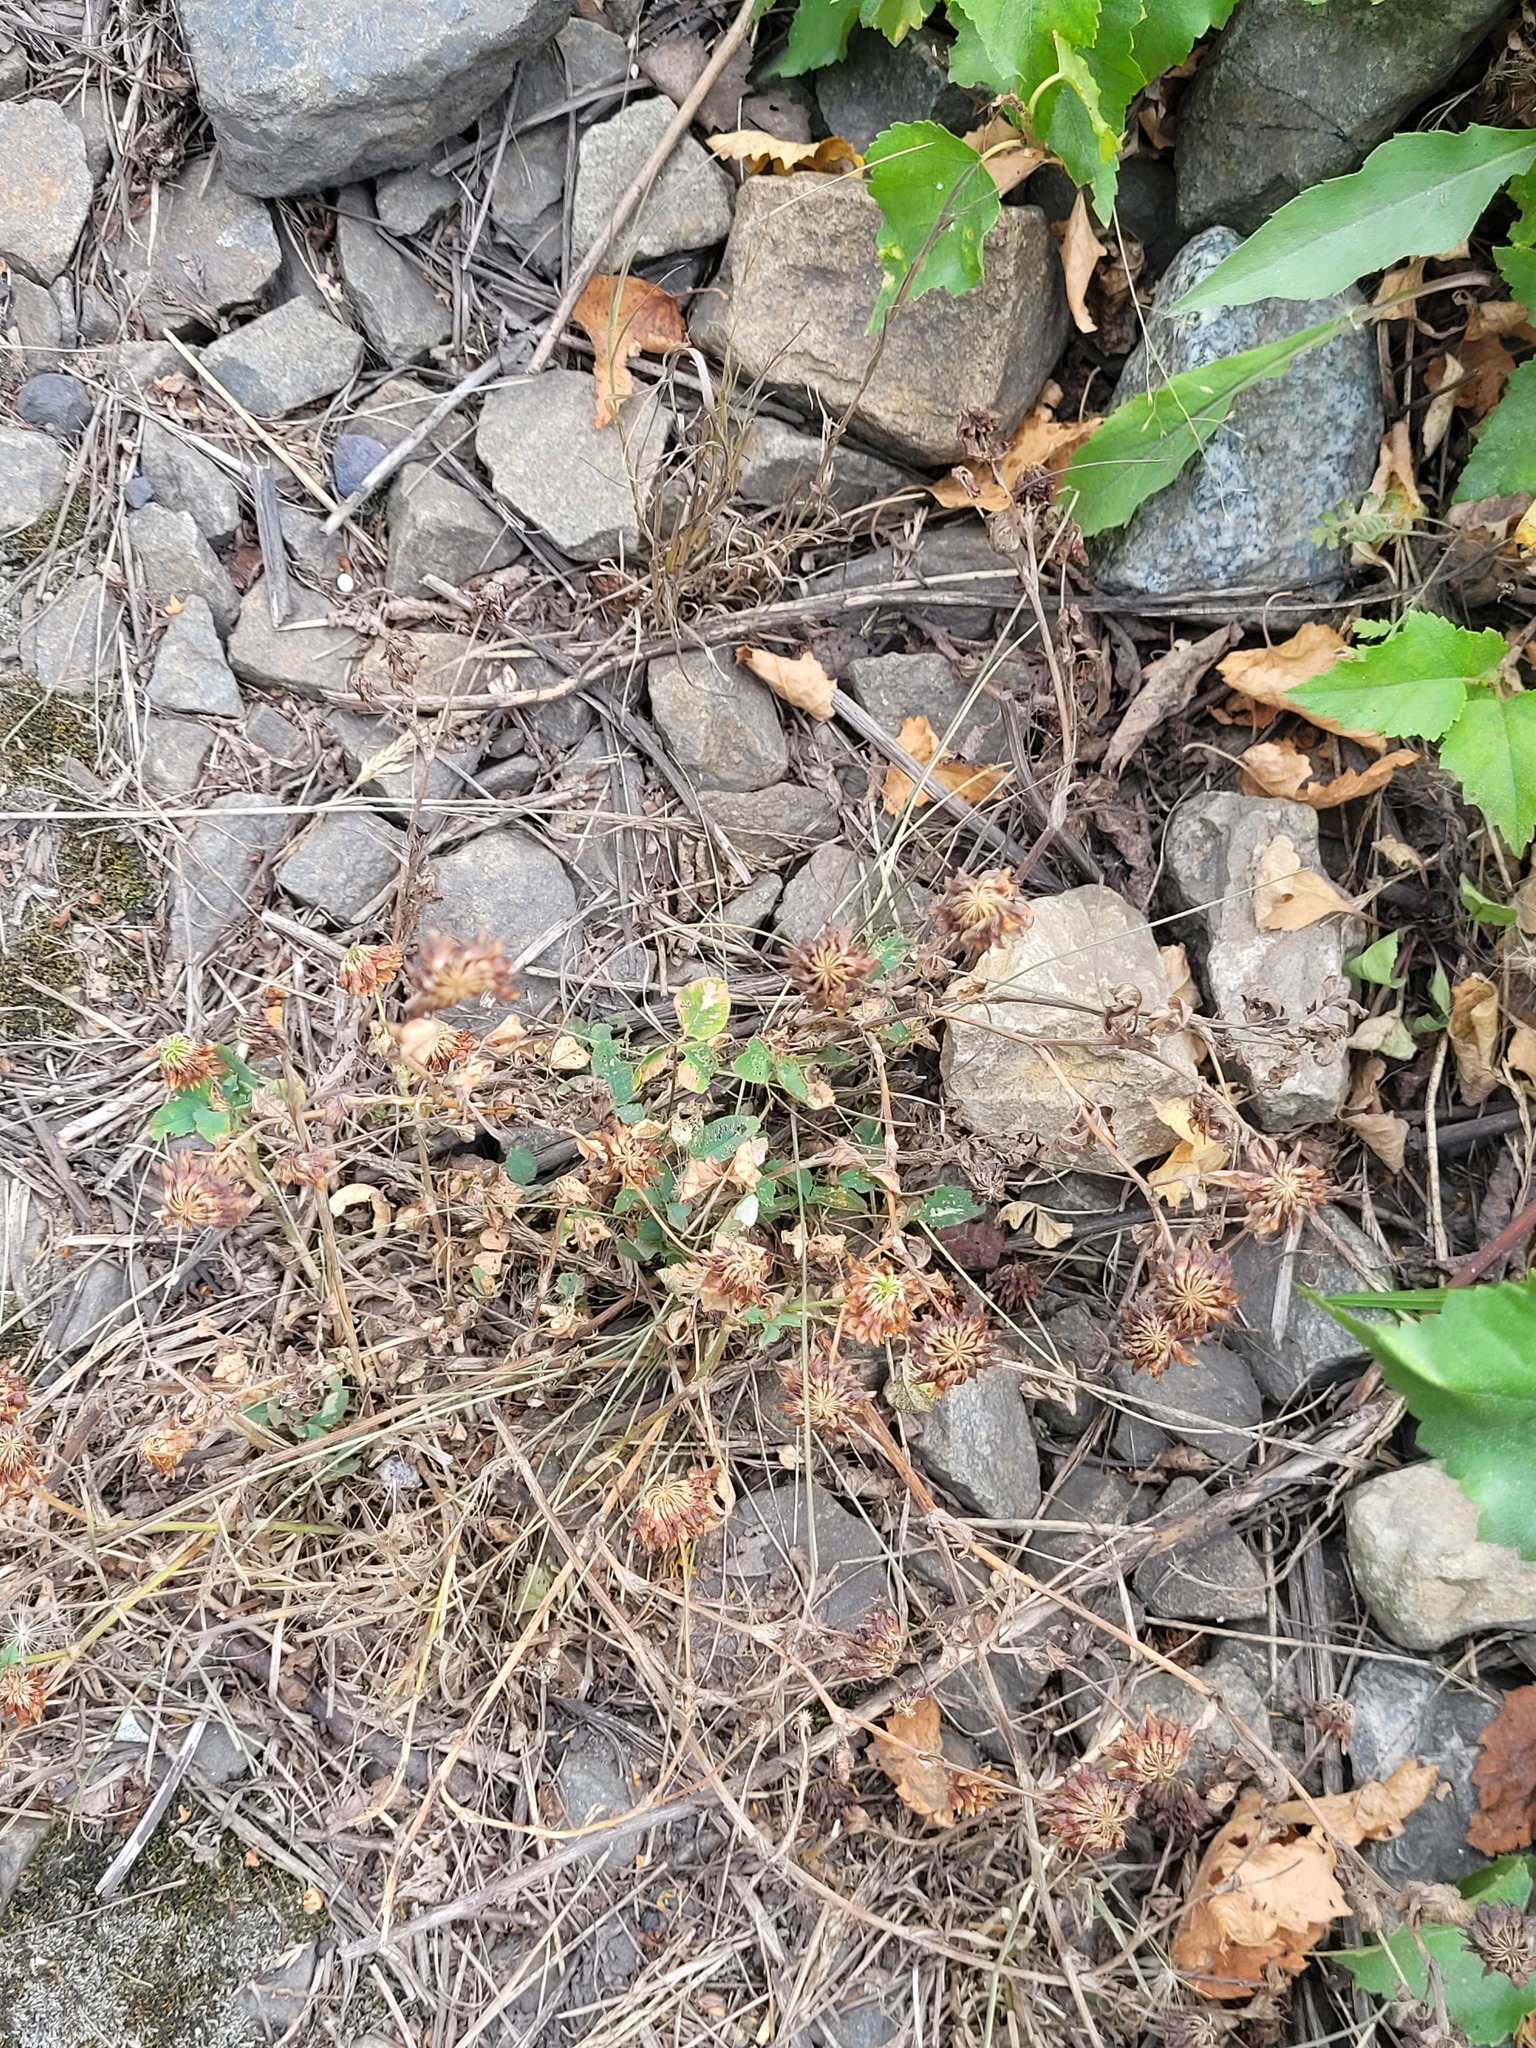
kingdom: Plantae
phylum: Tracheophyta
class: Magnoliopsida
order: Fabales
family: Fabaceae
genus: Trifolium
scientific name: Trifolium hybridum
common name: Alsike clover
